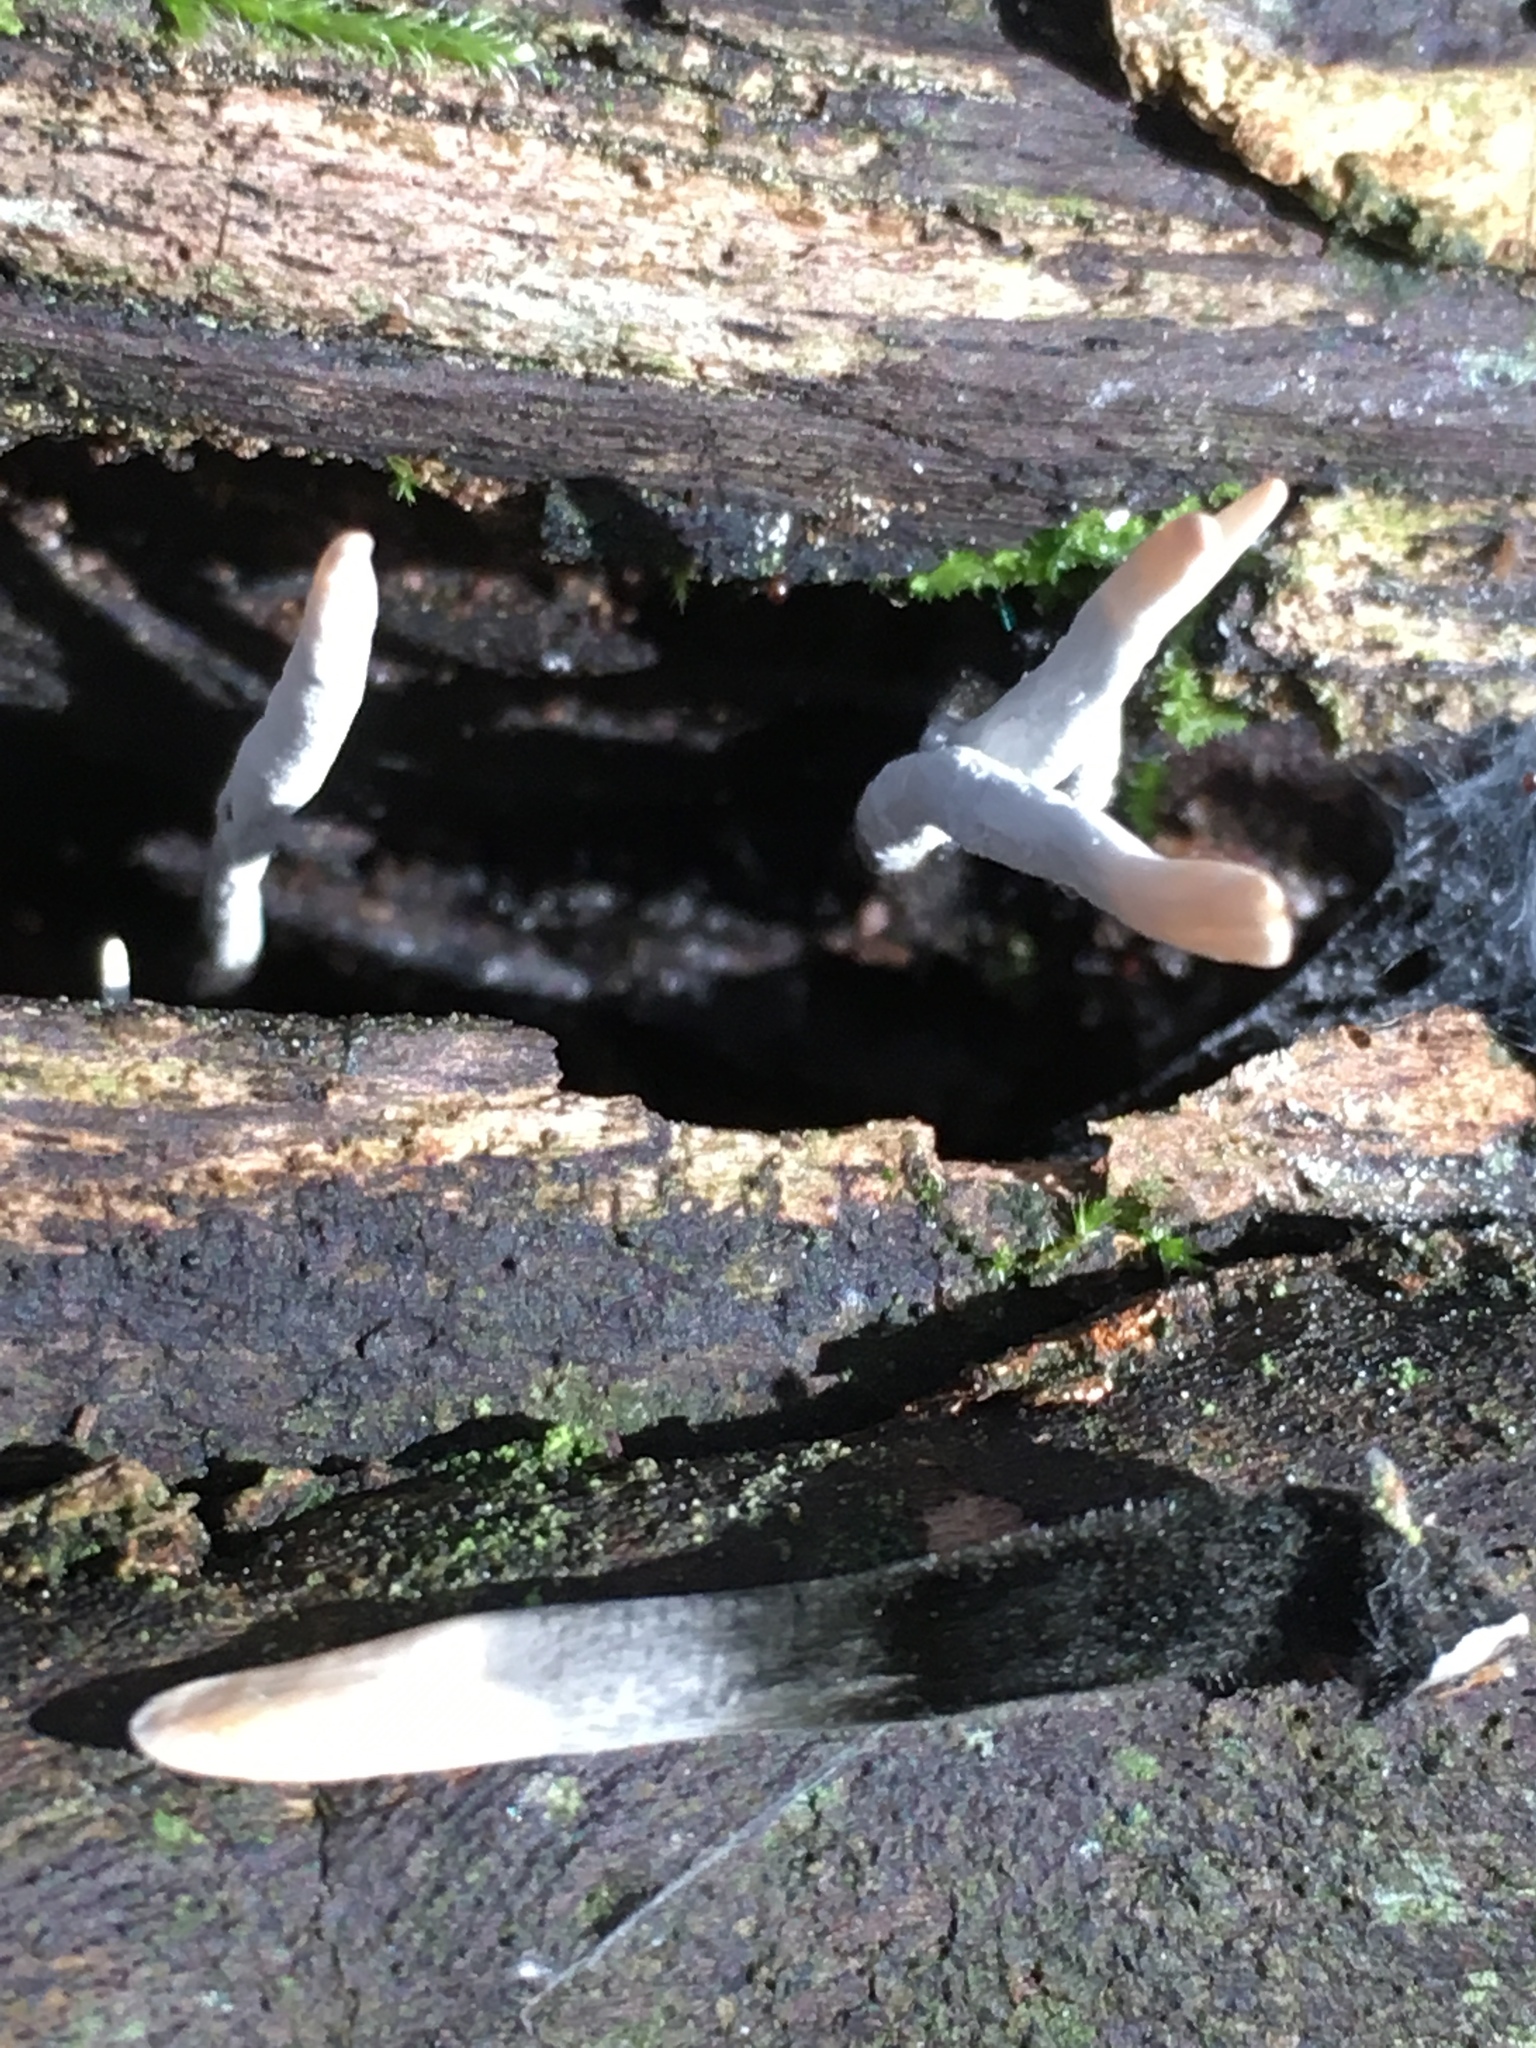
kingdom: Fungi
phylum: Ascomycota
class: Sordariomycetes
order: Xylariales
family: Xylariaceae
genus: Xylaria
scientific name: Xylaria hypoxylon
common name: Candle-snuff fungus
